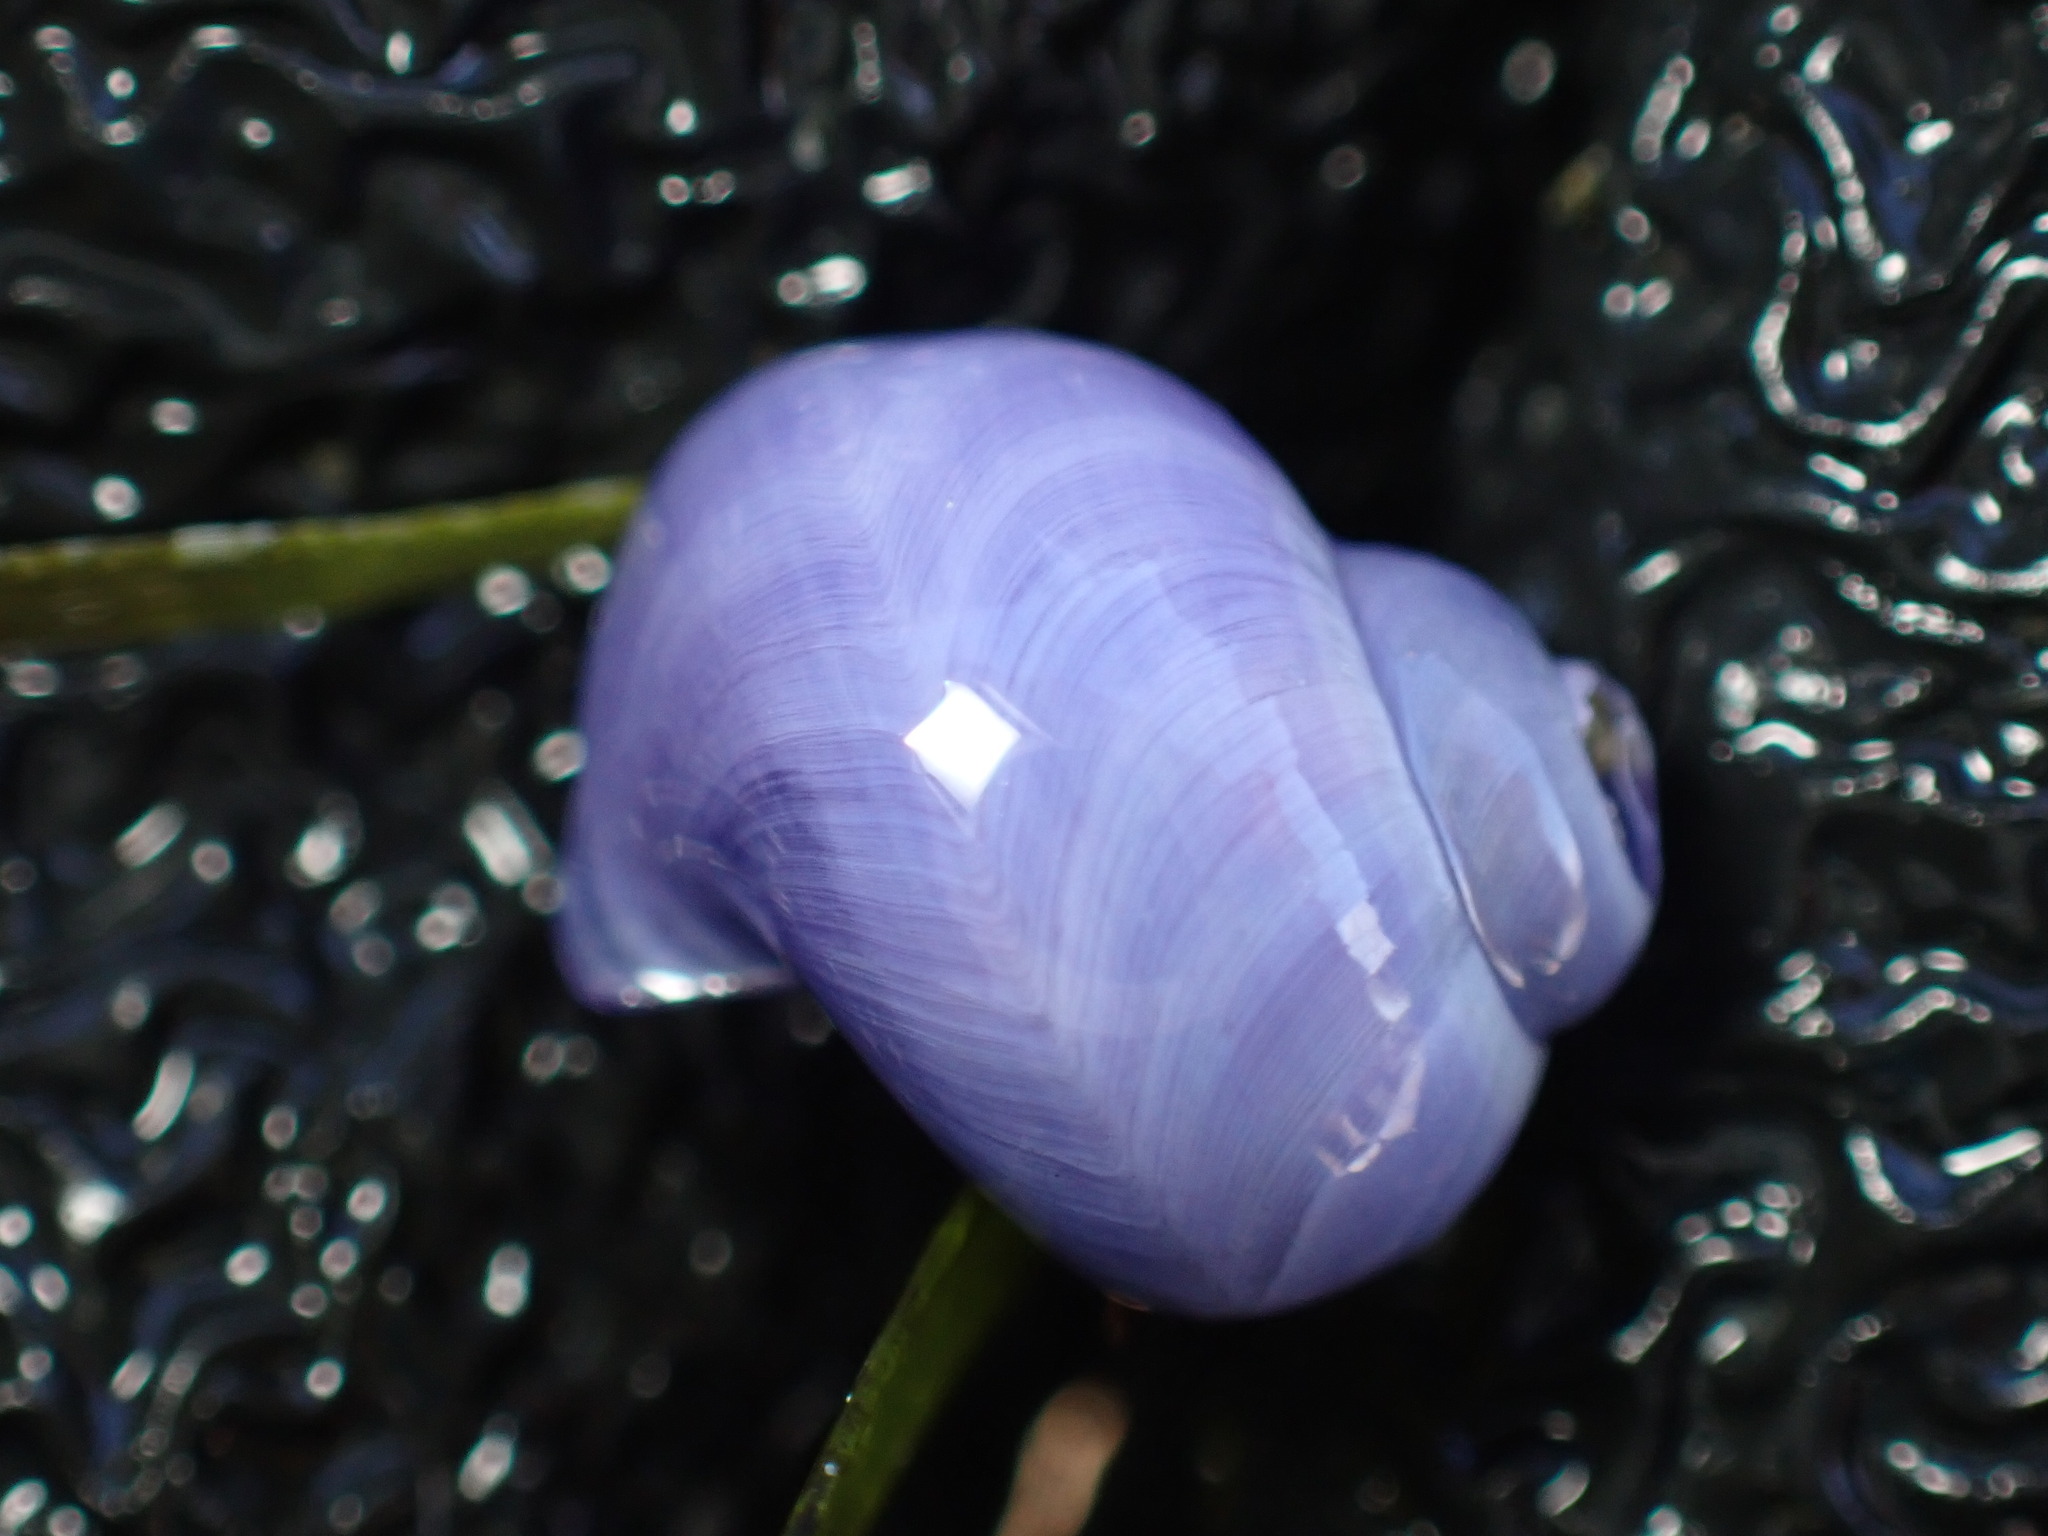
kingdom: Animalia
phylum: Mollusca
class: Gastropoda
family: Epitoniidae
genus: Janthina
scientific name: Janthina umbilicata
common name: Elongate janthina
